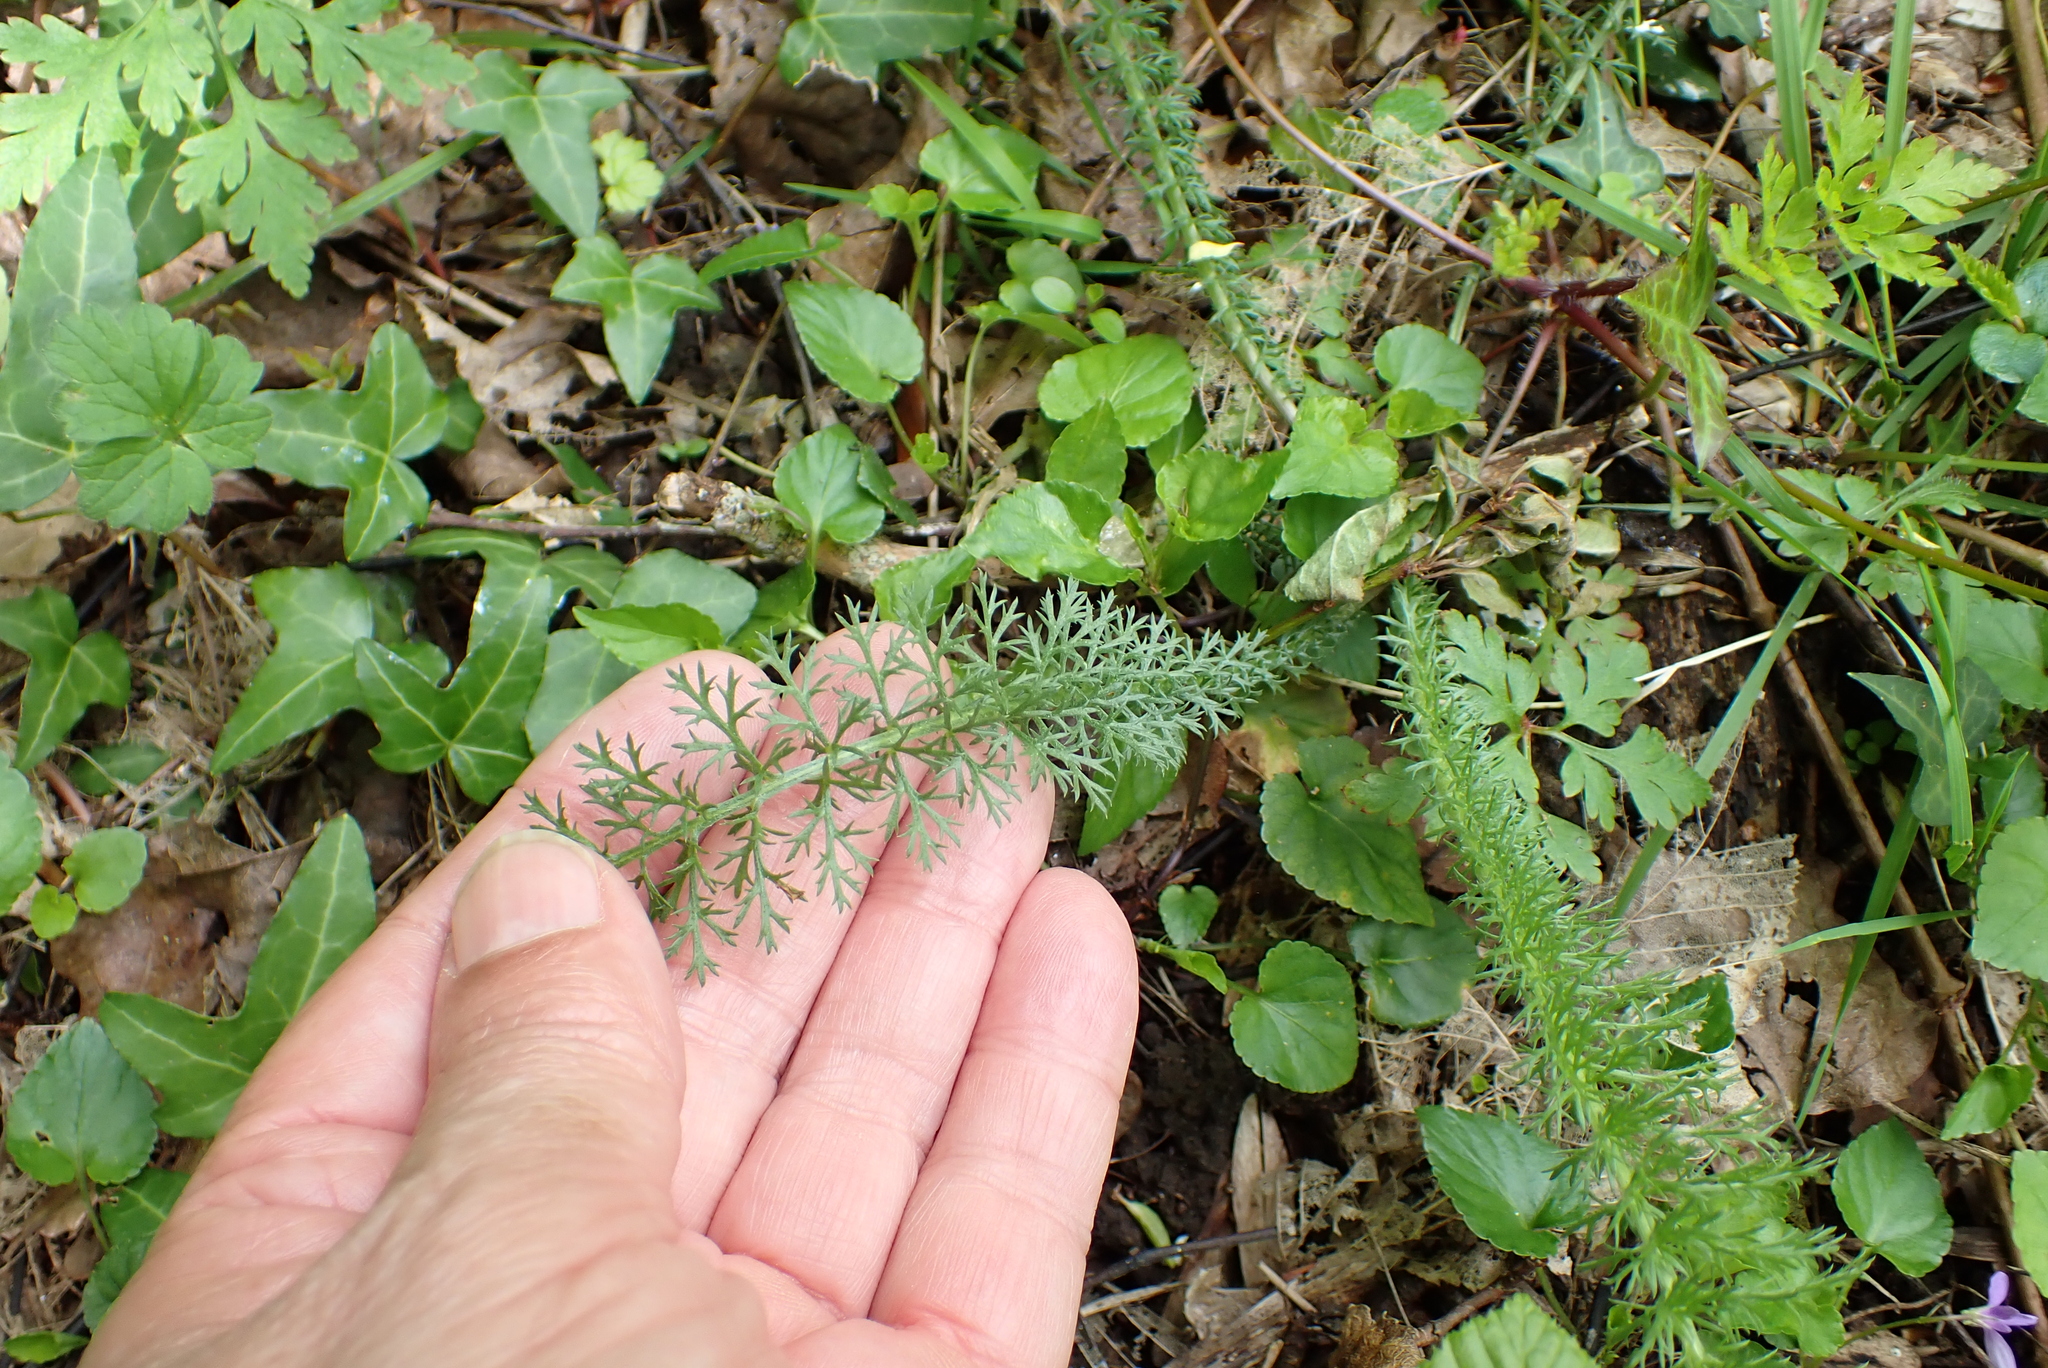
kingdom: Plantae
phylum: Tracheophyta
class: Magnoliopsida
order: Asterales
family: Asteraceae
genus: Achillea
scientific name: Achillea millefolium
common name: Yarrow
